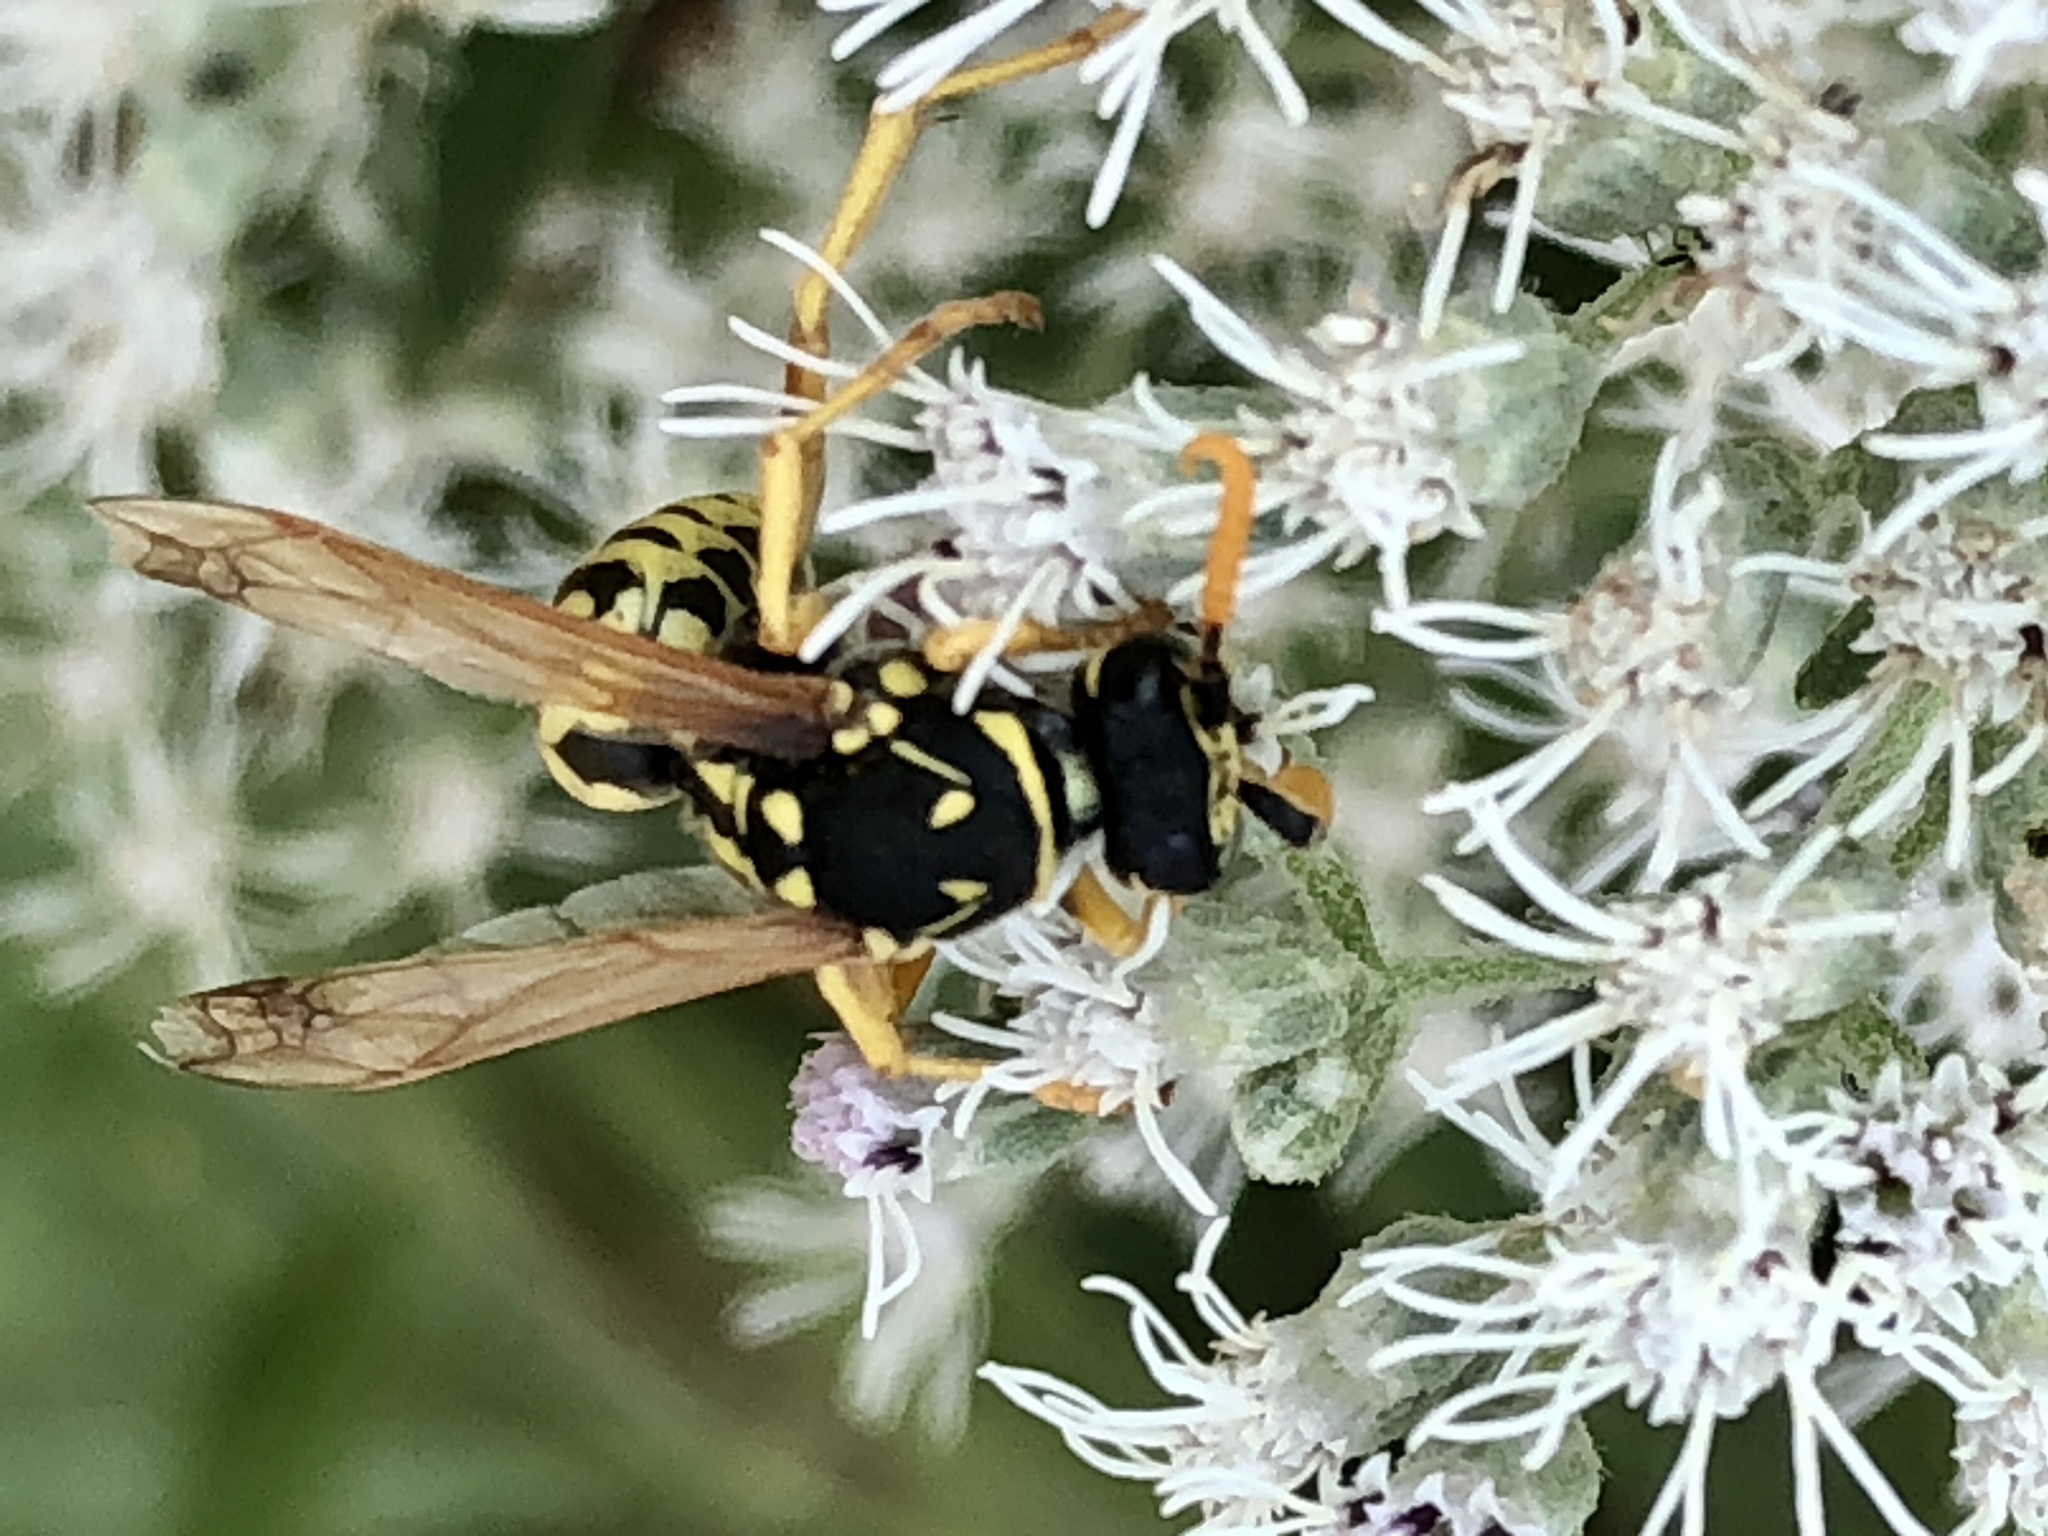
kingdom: Animalia
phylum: Arthropoda
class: Insecta
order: Hymenoptera
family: Eumenidae
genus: Polistes
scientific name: Polistes dominula
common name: Paper wasp
